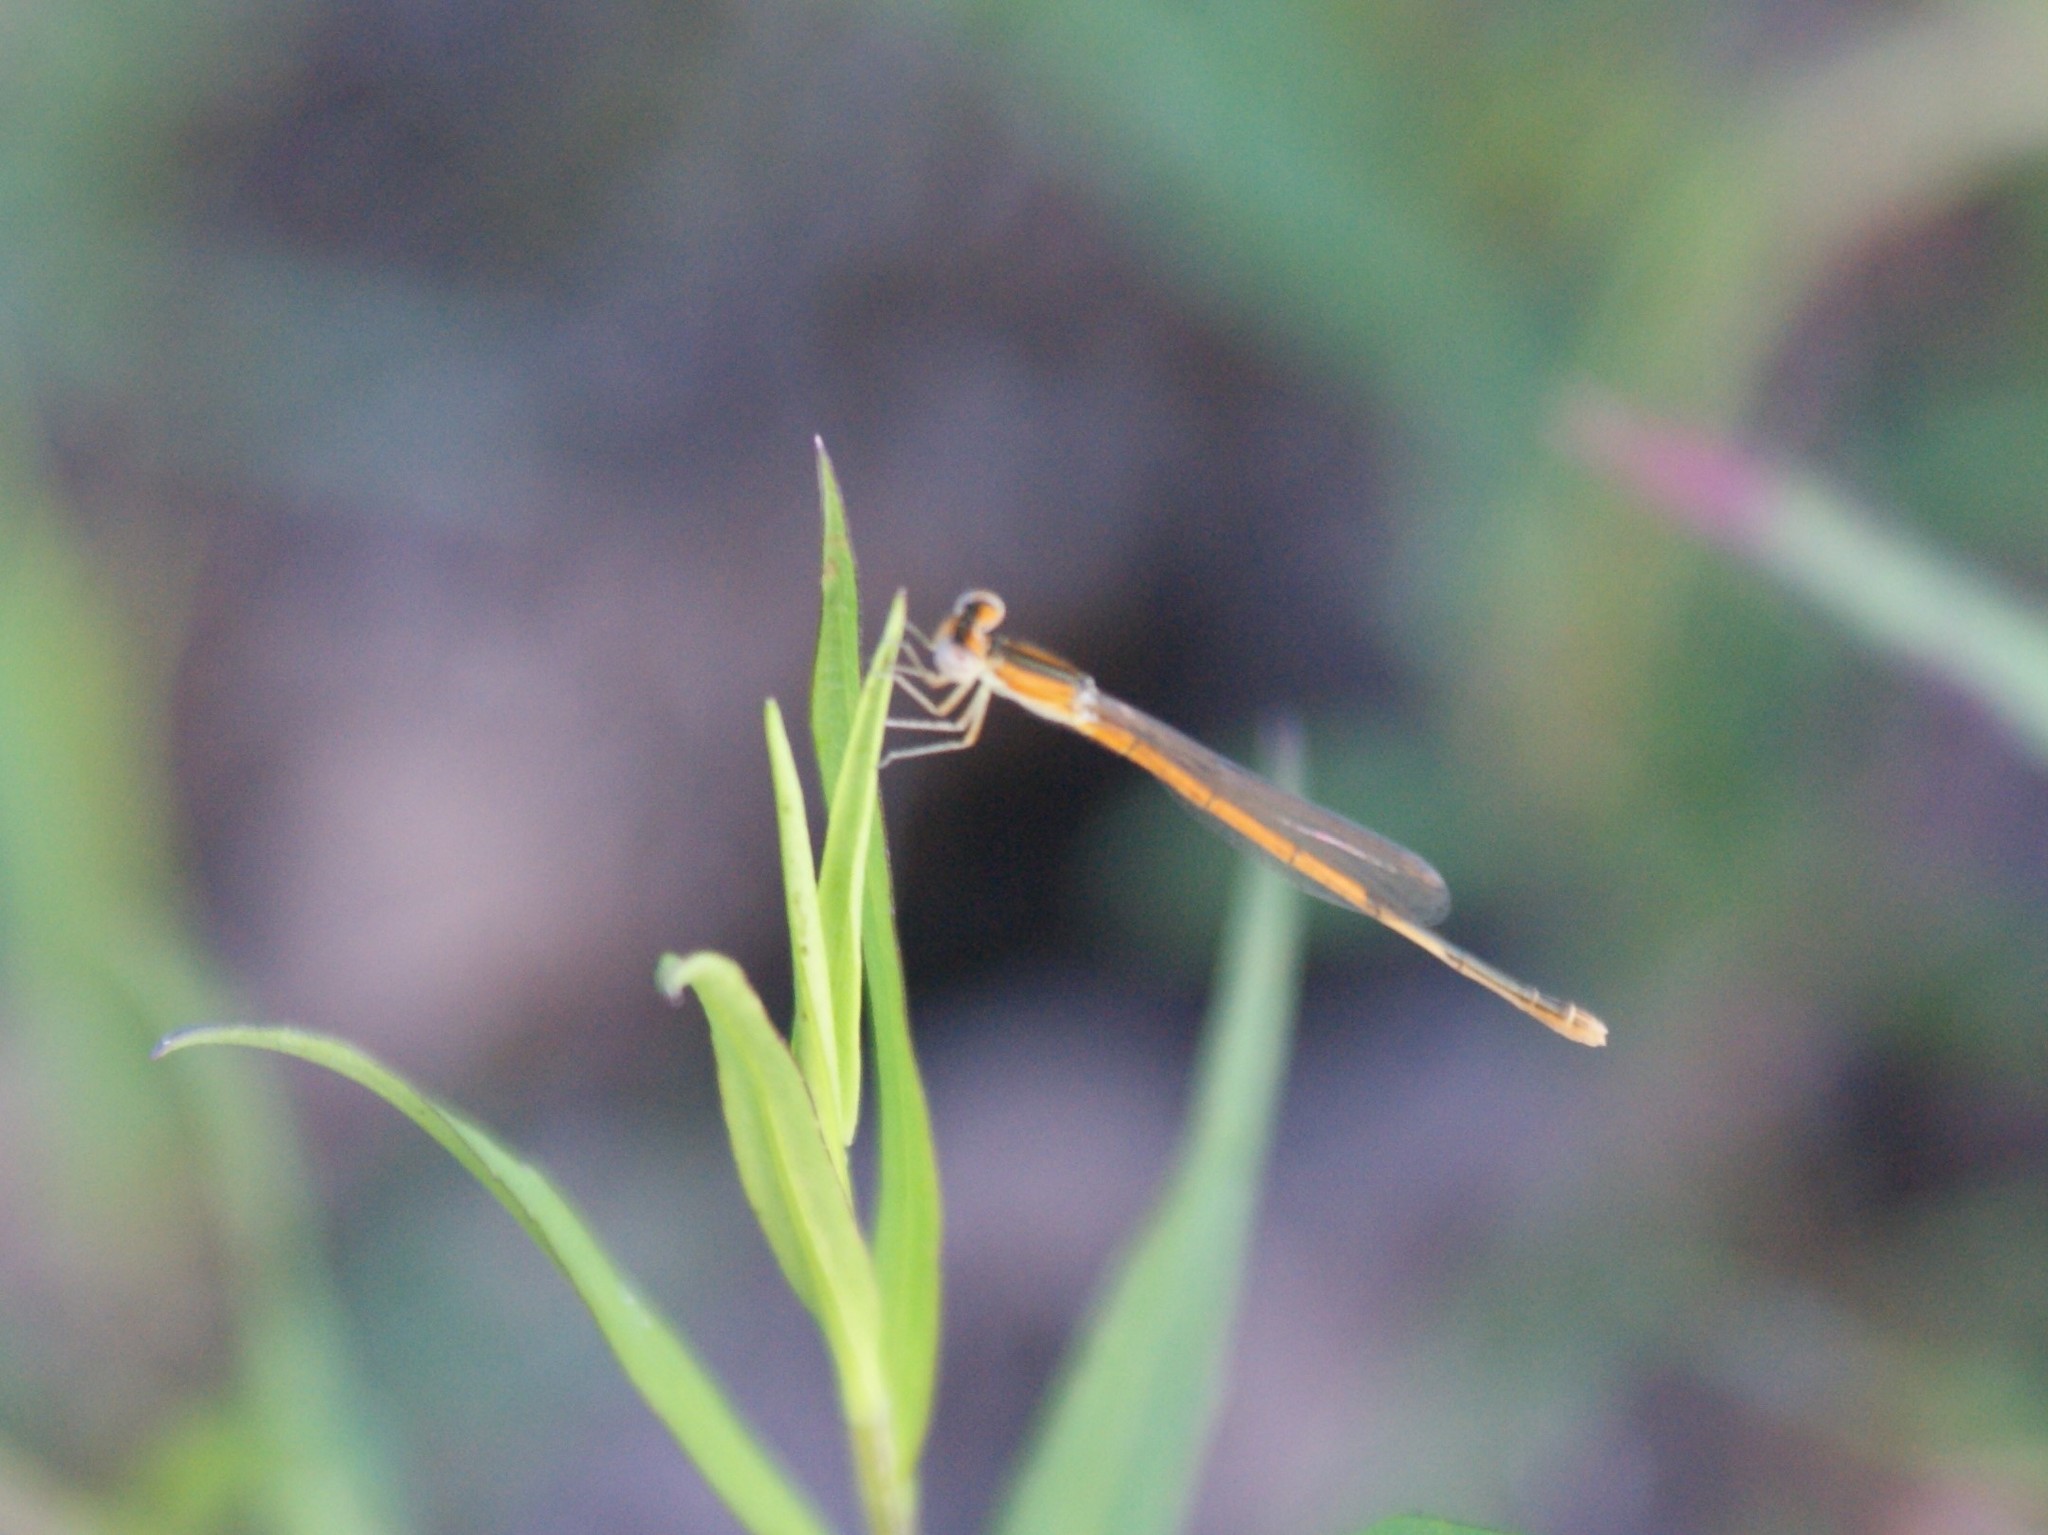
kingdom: Animalia
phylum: Arthropoda
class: Insecta
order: Odonata
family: Coenagrionidae
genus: Ischnura
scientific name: Ischnura hastata
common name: Citrine forktail
